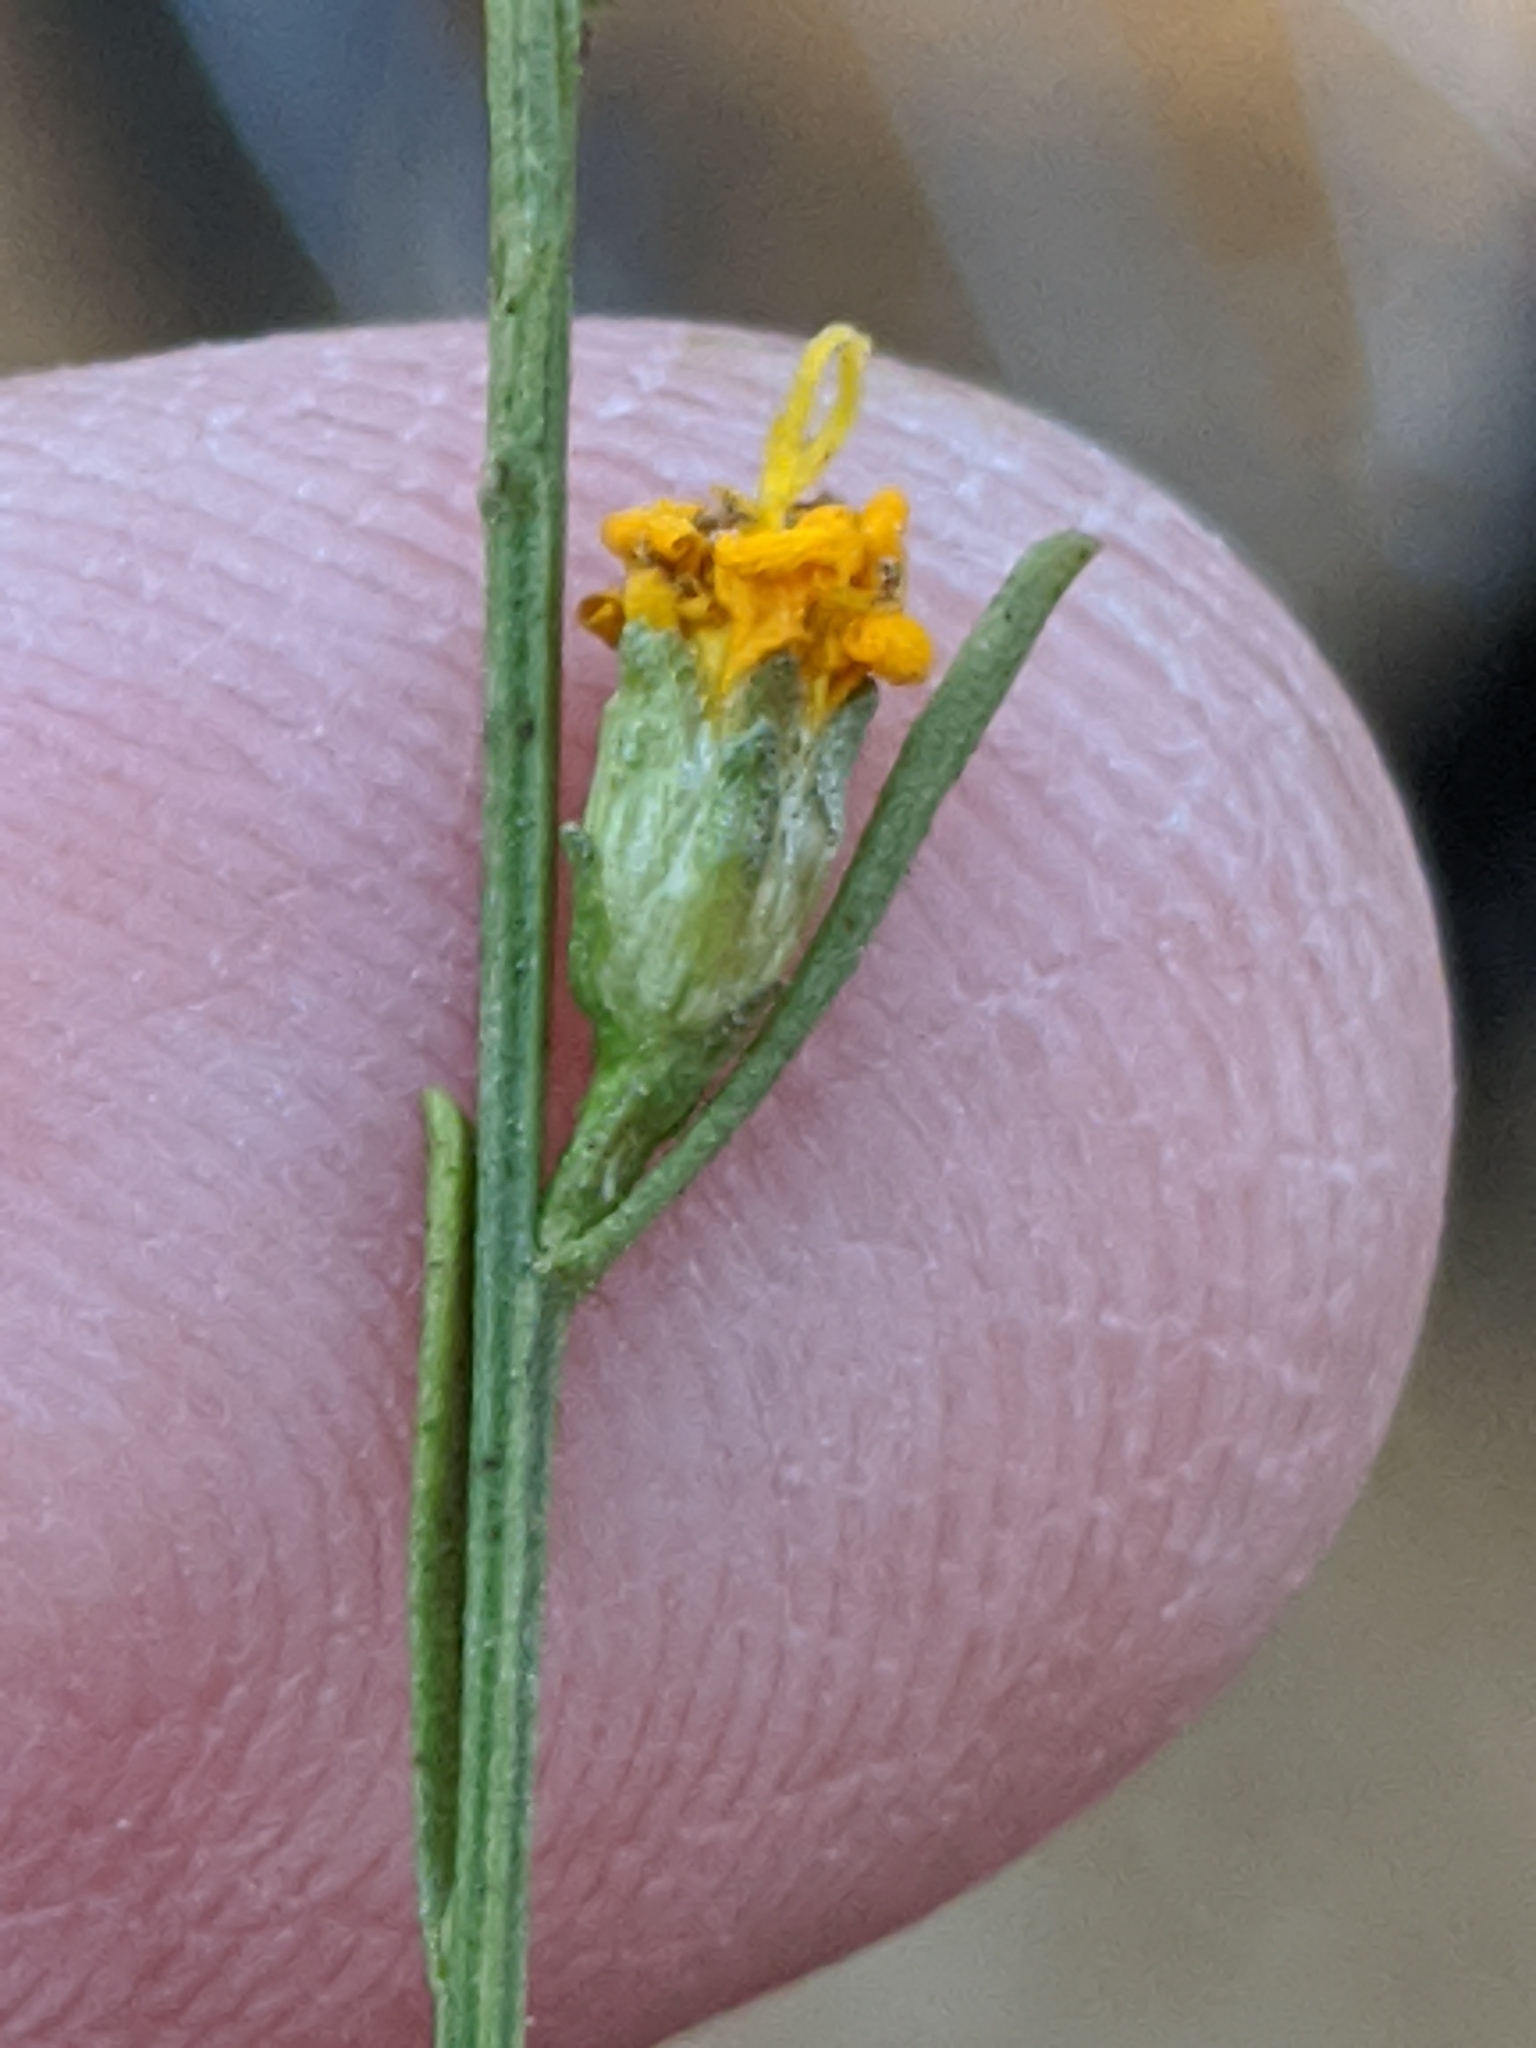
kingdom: Plantae
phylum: Tracheophyta
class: Magnoliopsida
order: Asterales
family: Asteraceae
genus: Gutierrezia
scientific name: Gutierrezia texana
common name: Texas snakeweed
